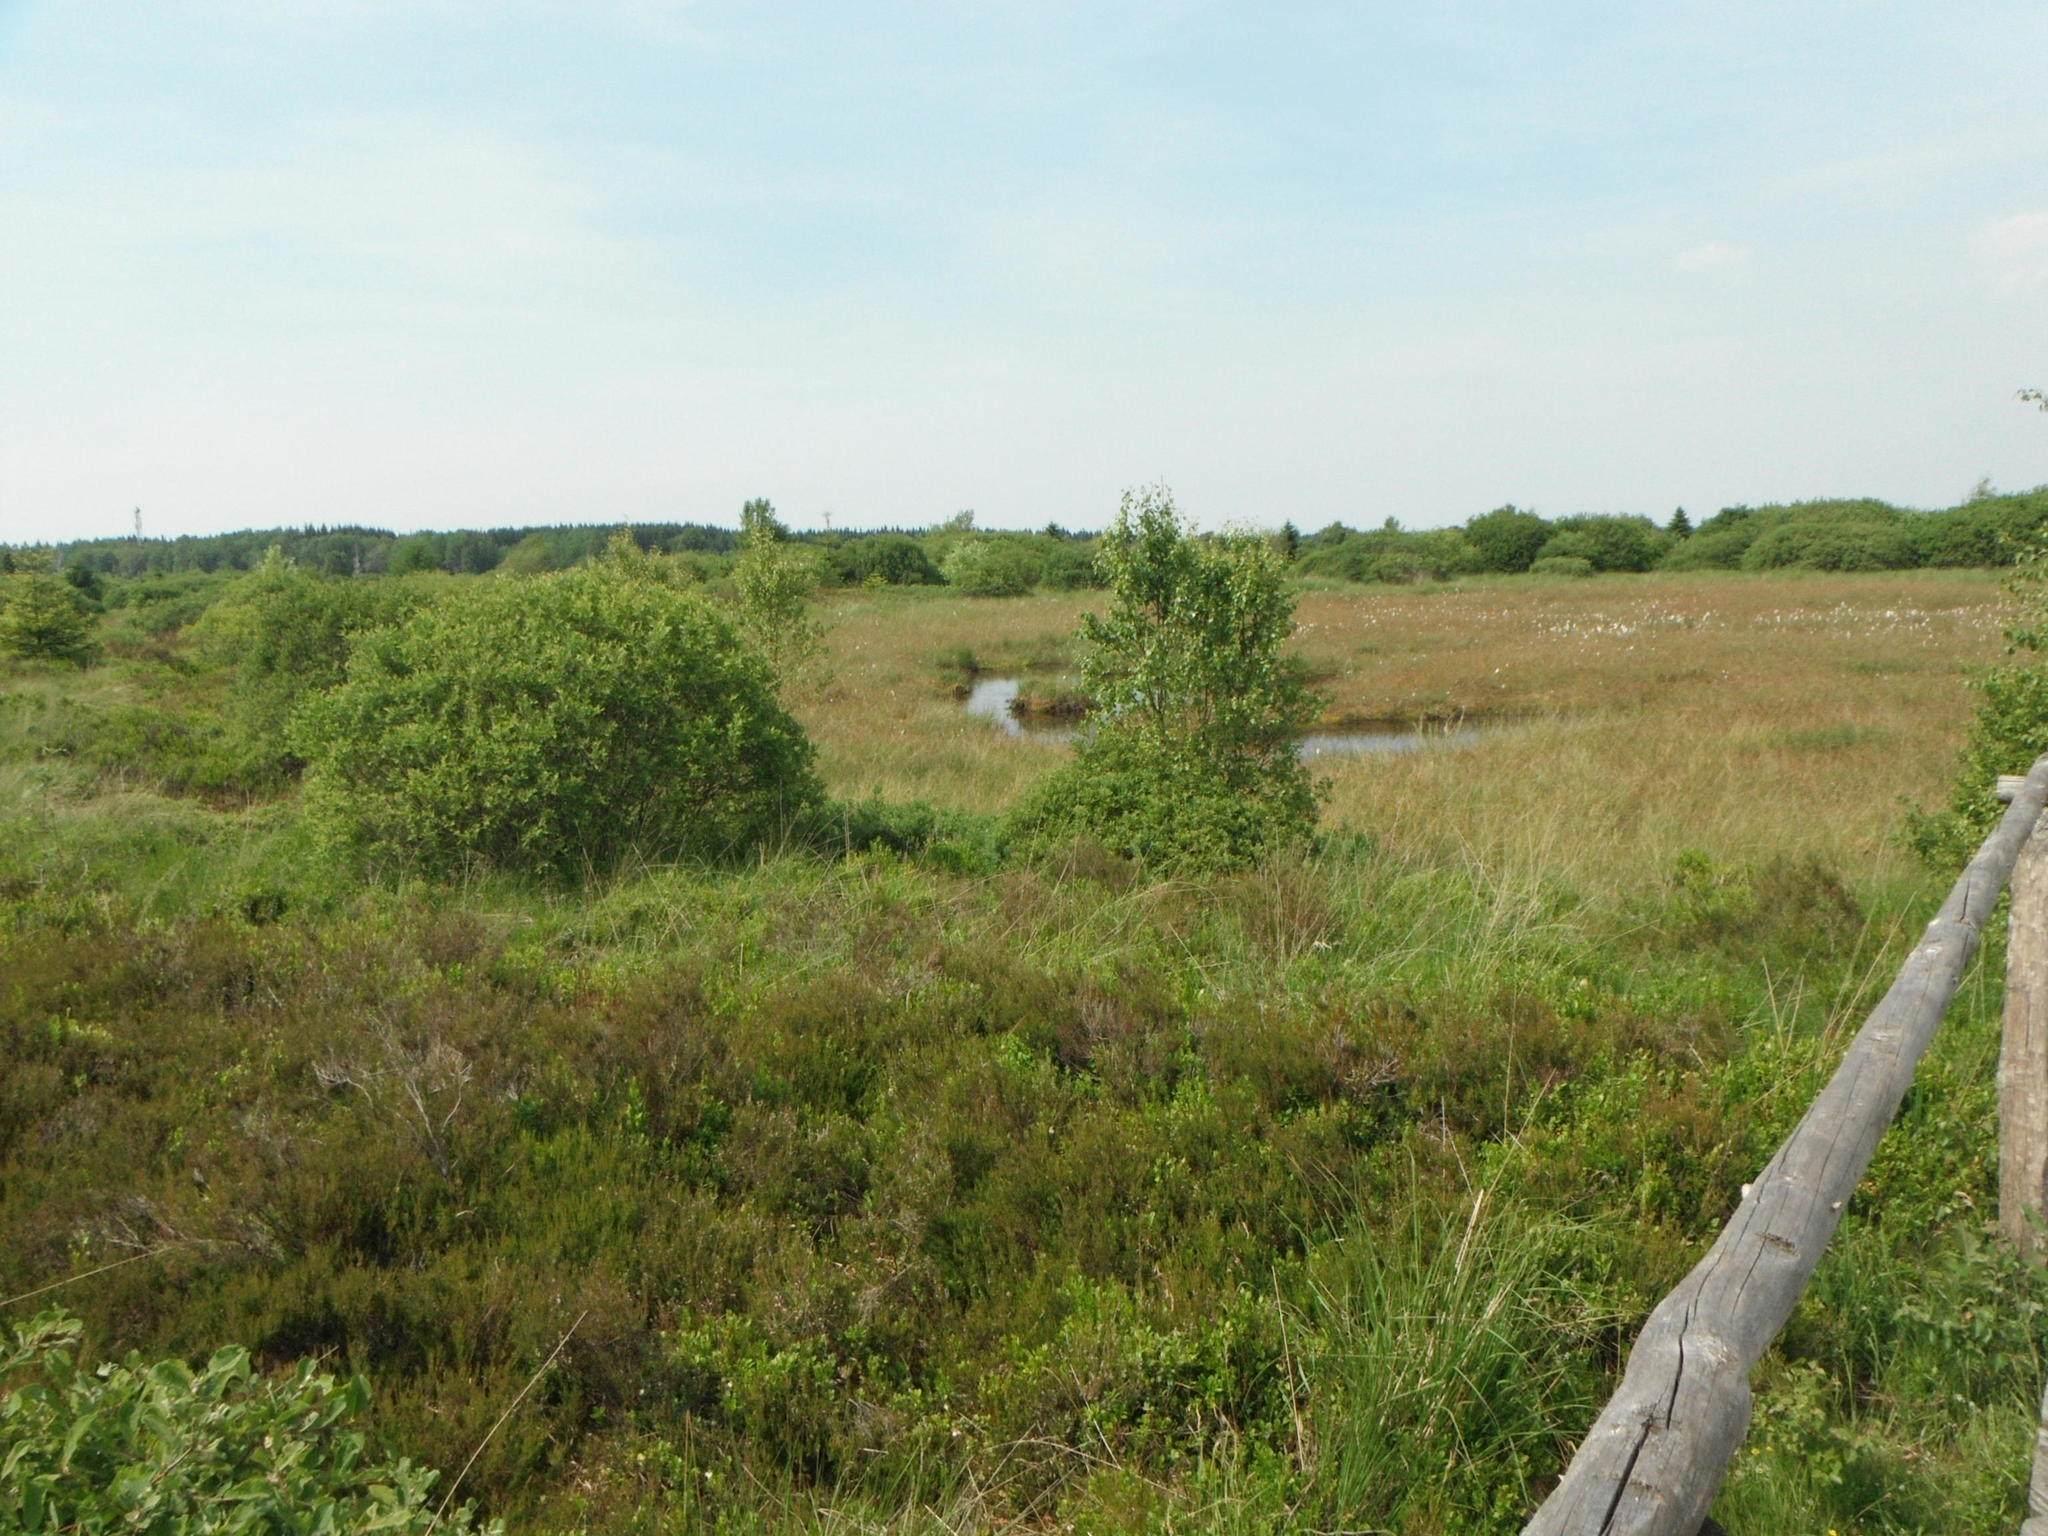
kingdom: Plantae
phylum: Tracheophyta
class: Magnoliopsida
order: Ericales
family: Ericaceae
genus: Calluna
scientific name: Calluna vulgaris
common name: Heather
